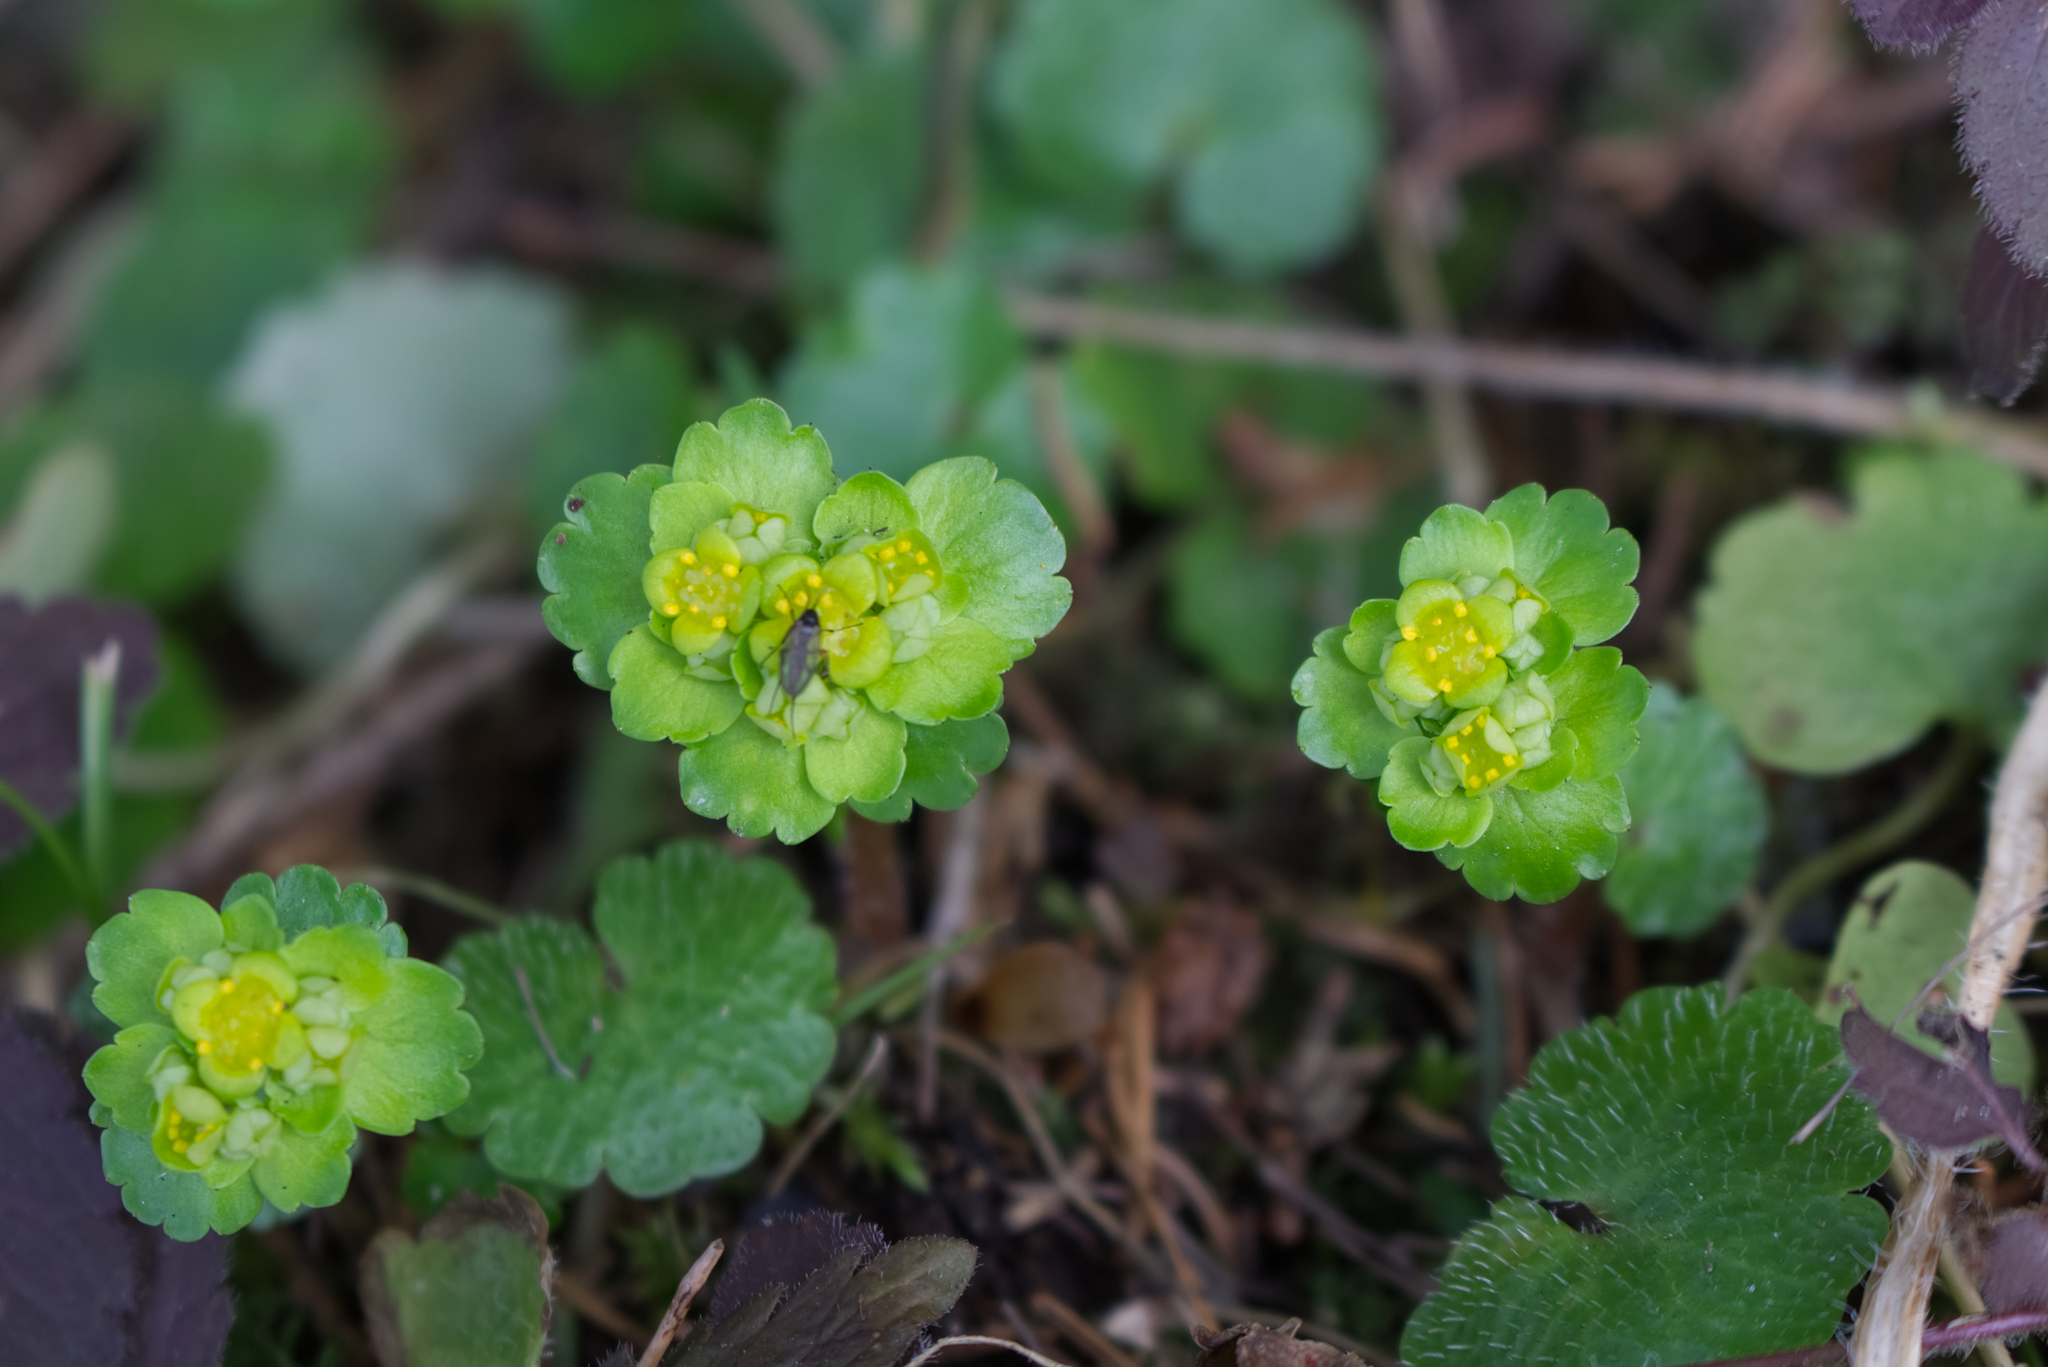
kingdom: Plantae
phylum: Tracheophyta
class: Magnoliopsida
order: Saxifragales
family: Saxifragaceae
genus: Chrysosplenium
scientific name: Chrysosplenium alternifolium
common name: Alternate-leaved golden-saxifrage
